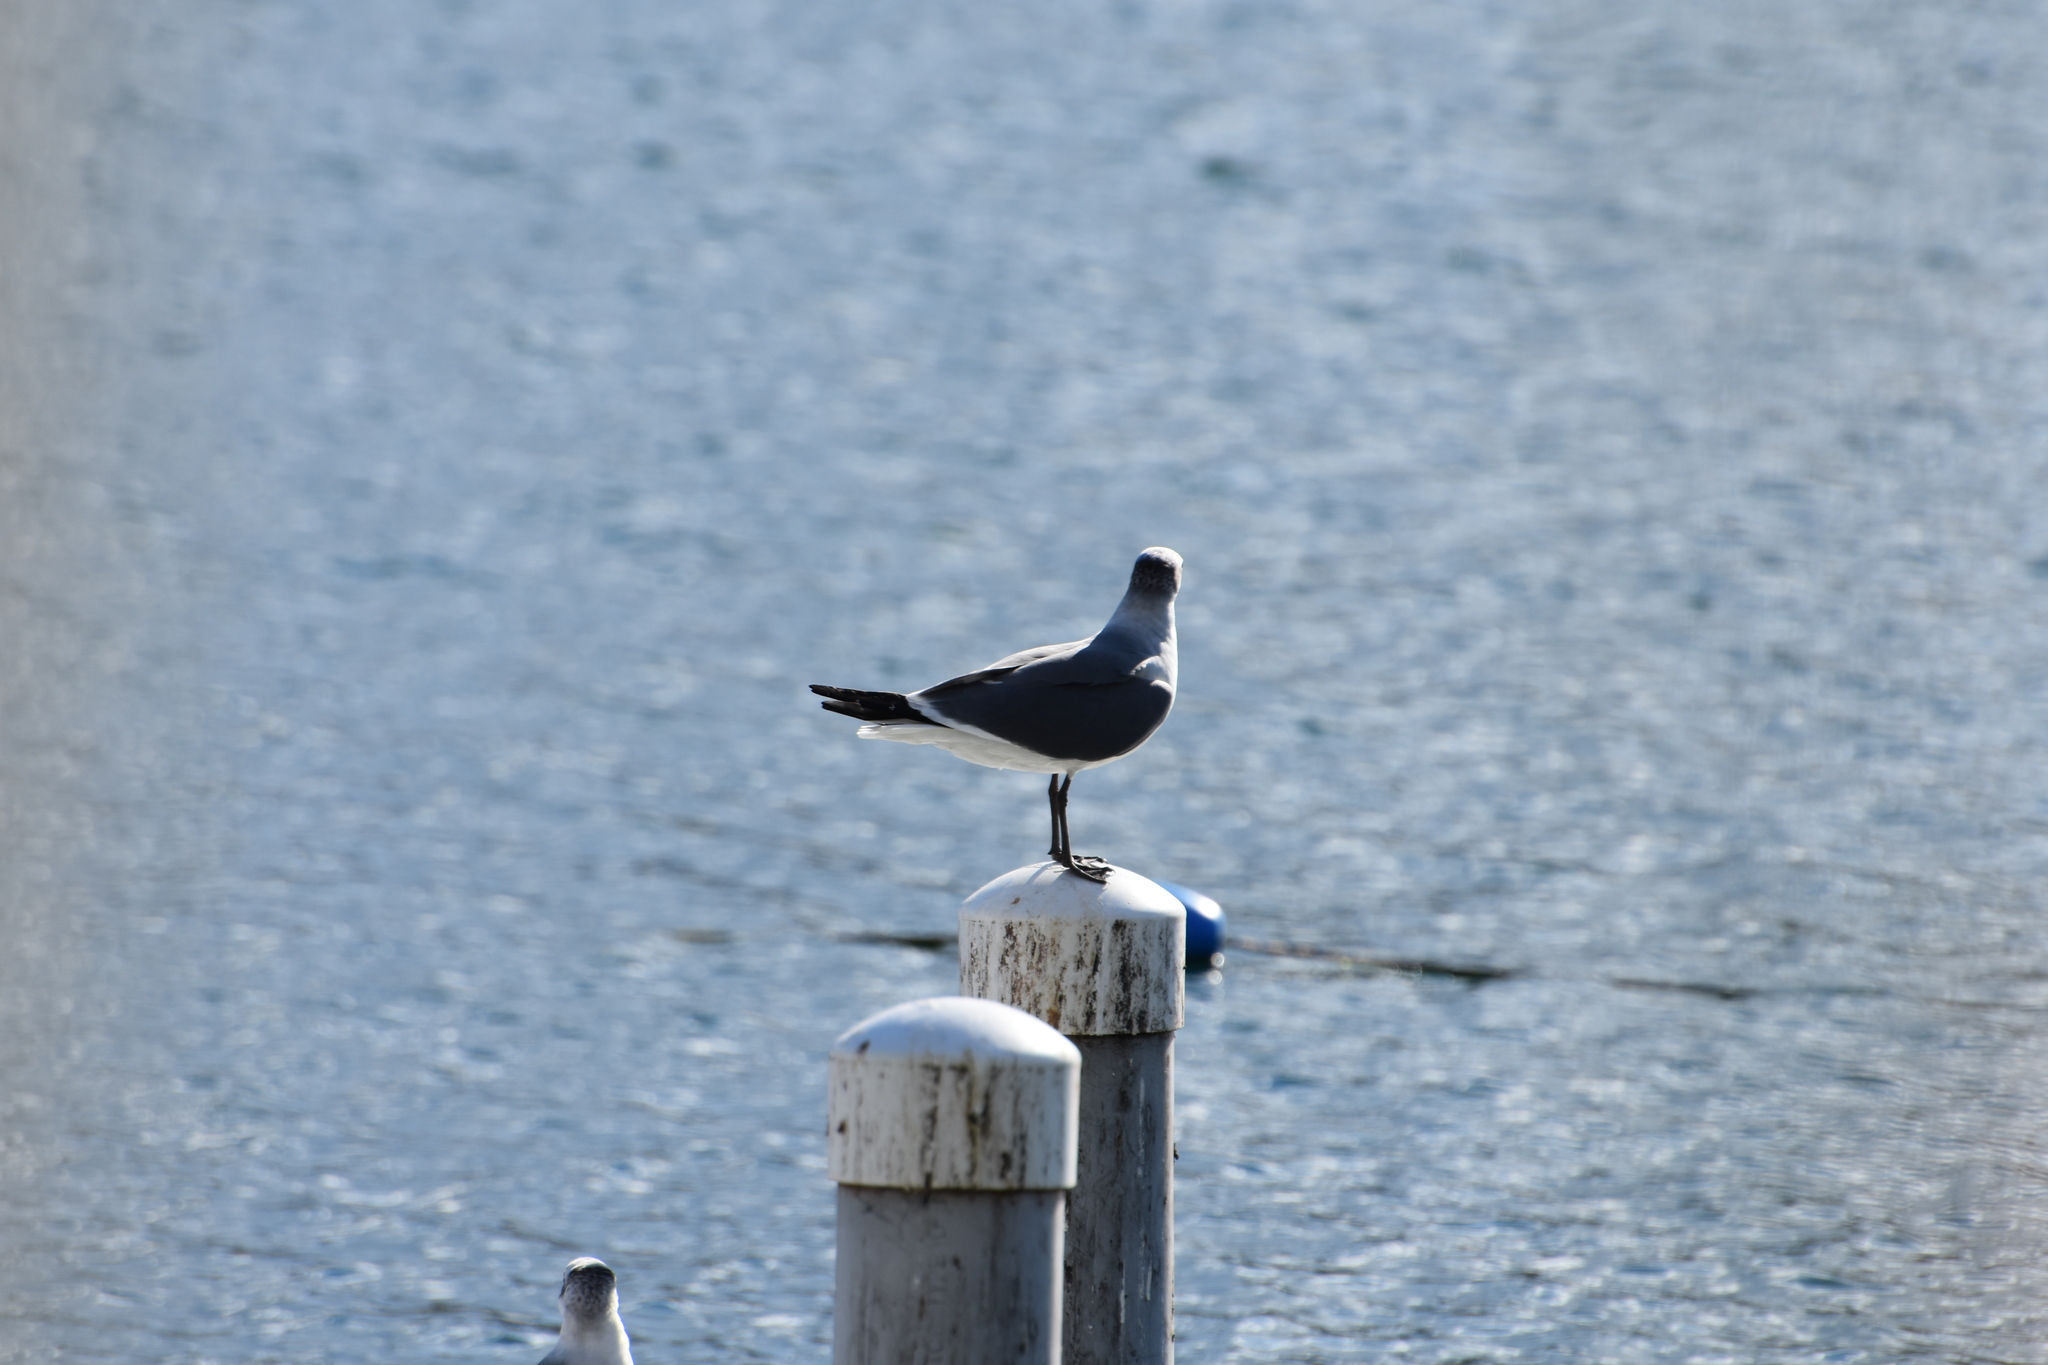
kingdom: Animalia
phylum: Chordata
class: Aves
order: Charadriiformes
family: Laridae
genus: Leucophaeus
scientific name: Leucophaeus atricilla
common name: Laughing gull
